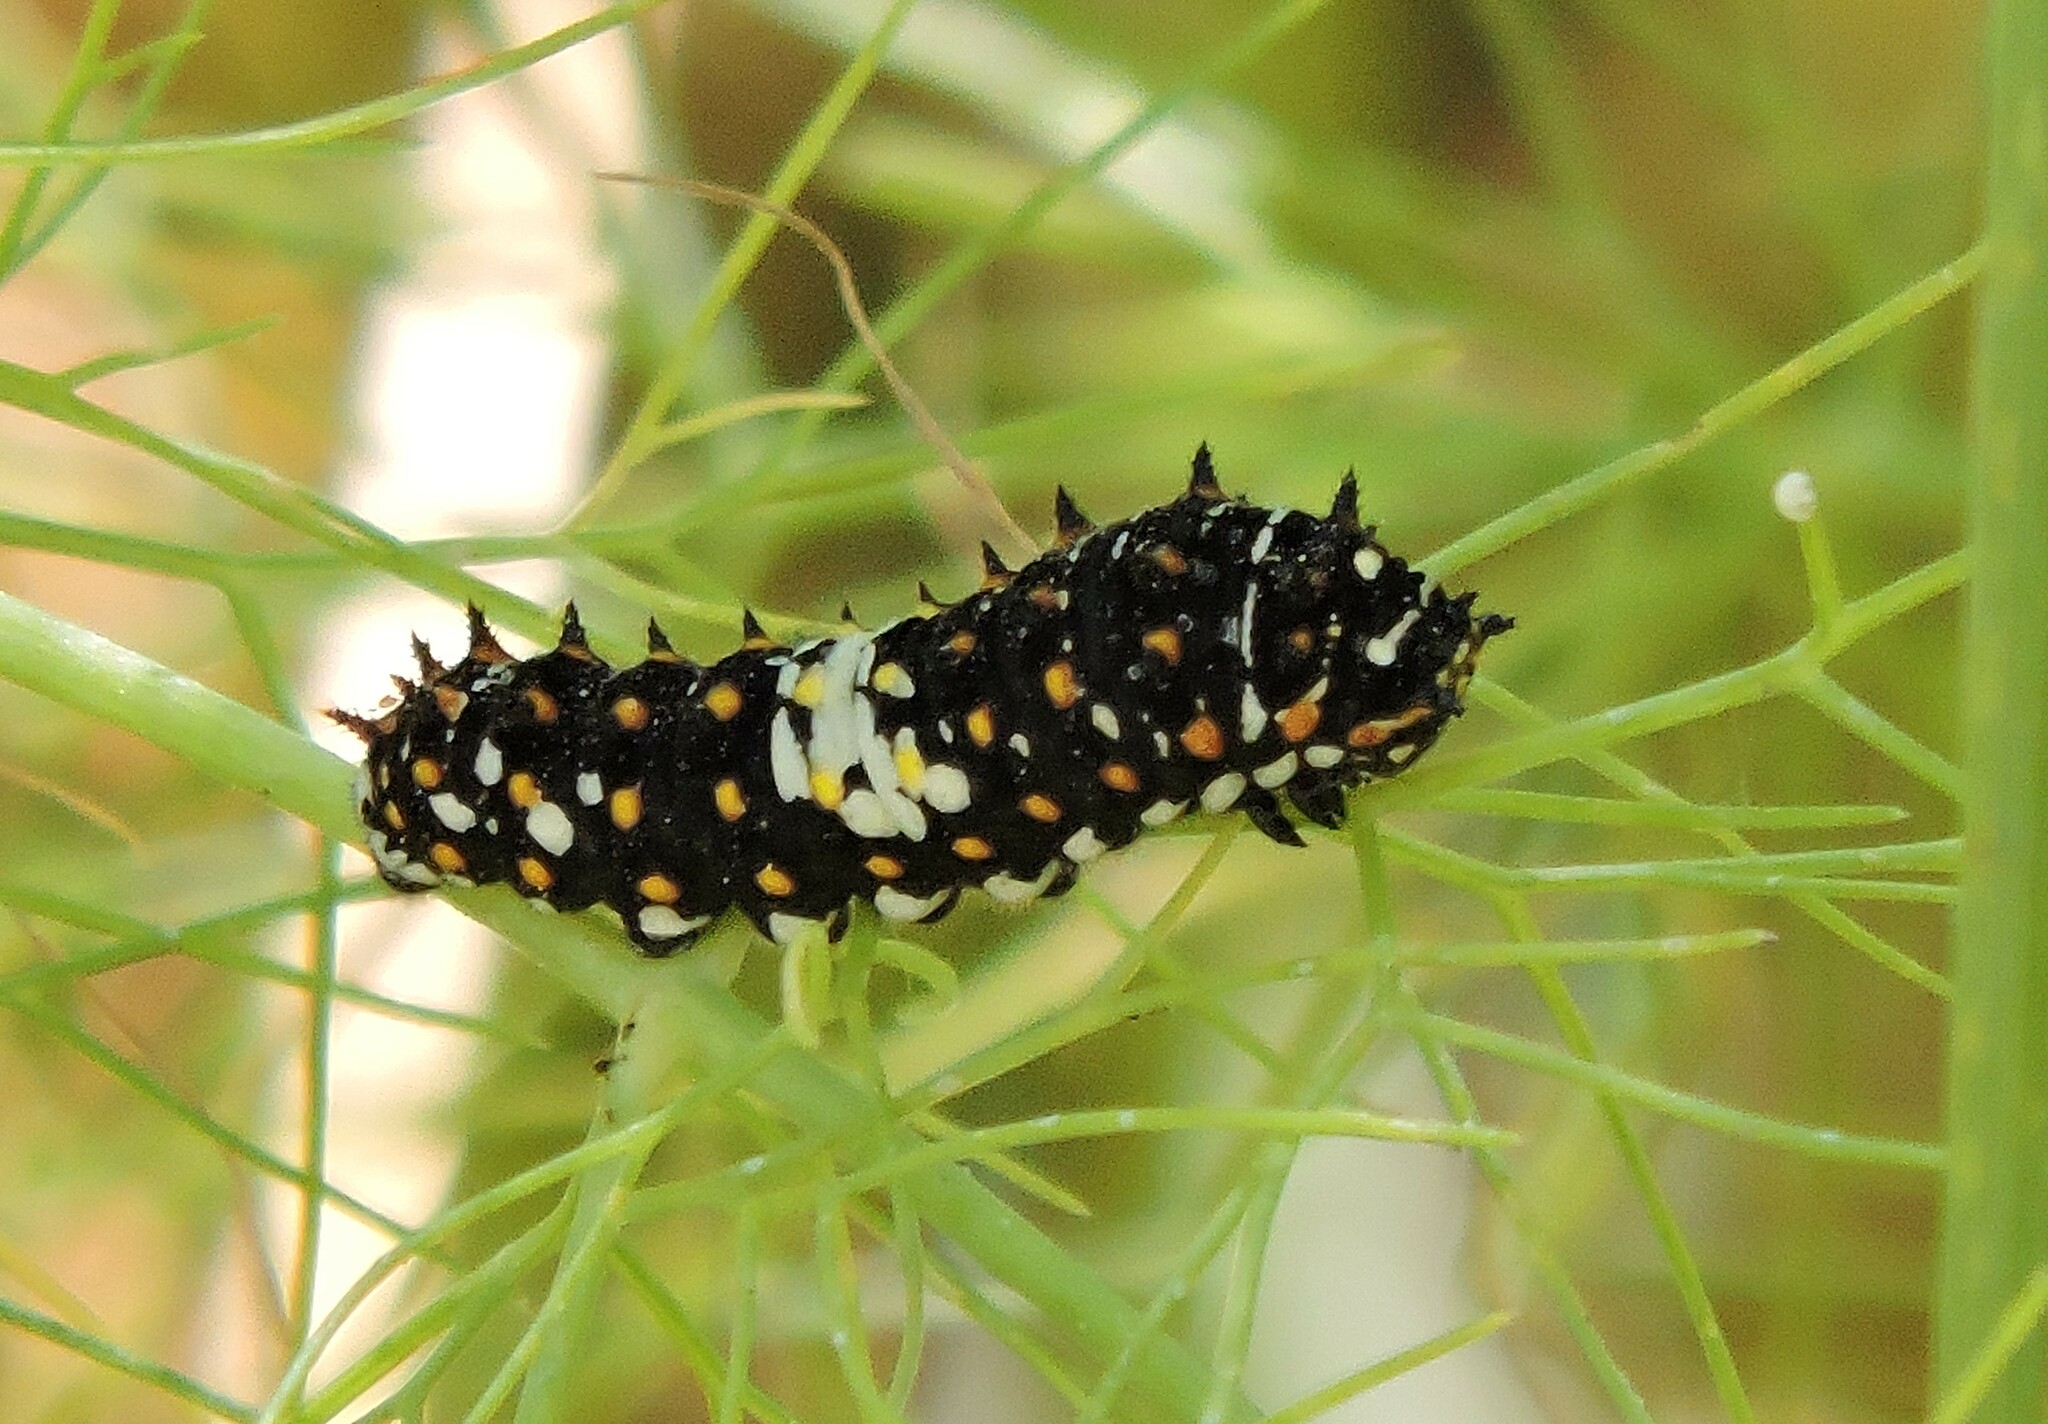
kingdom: Animalia
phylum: Arthropoda
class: Insecta
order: Lepidoptera
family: Papilionidae
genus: Papilio
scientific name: Papilio zelicaon
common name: Anise swallowtail
